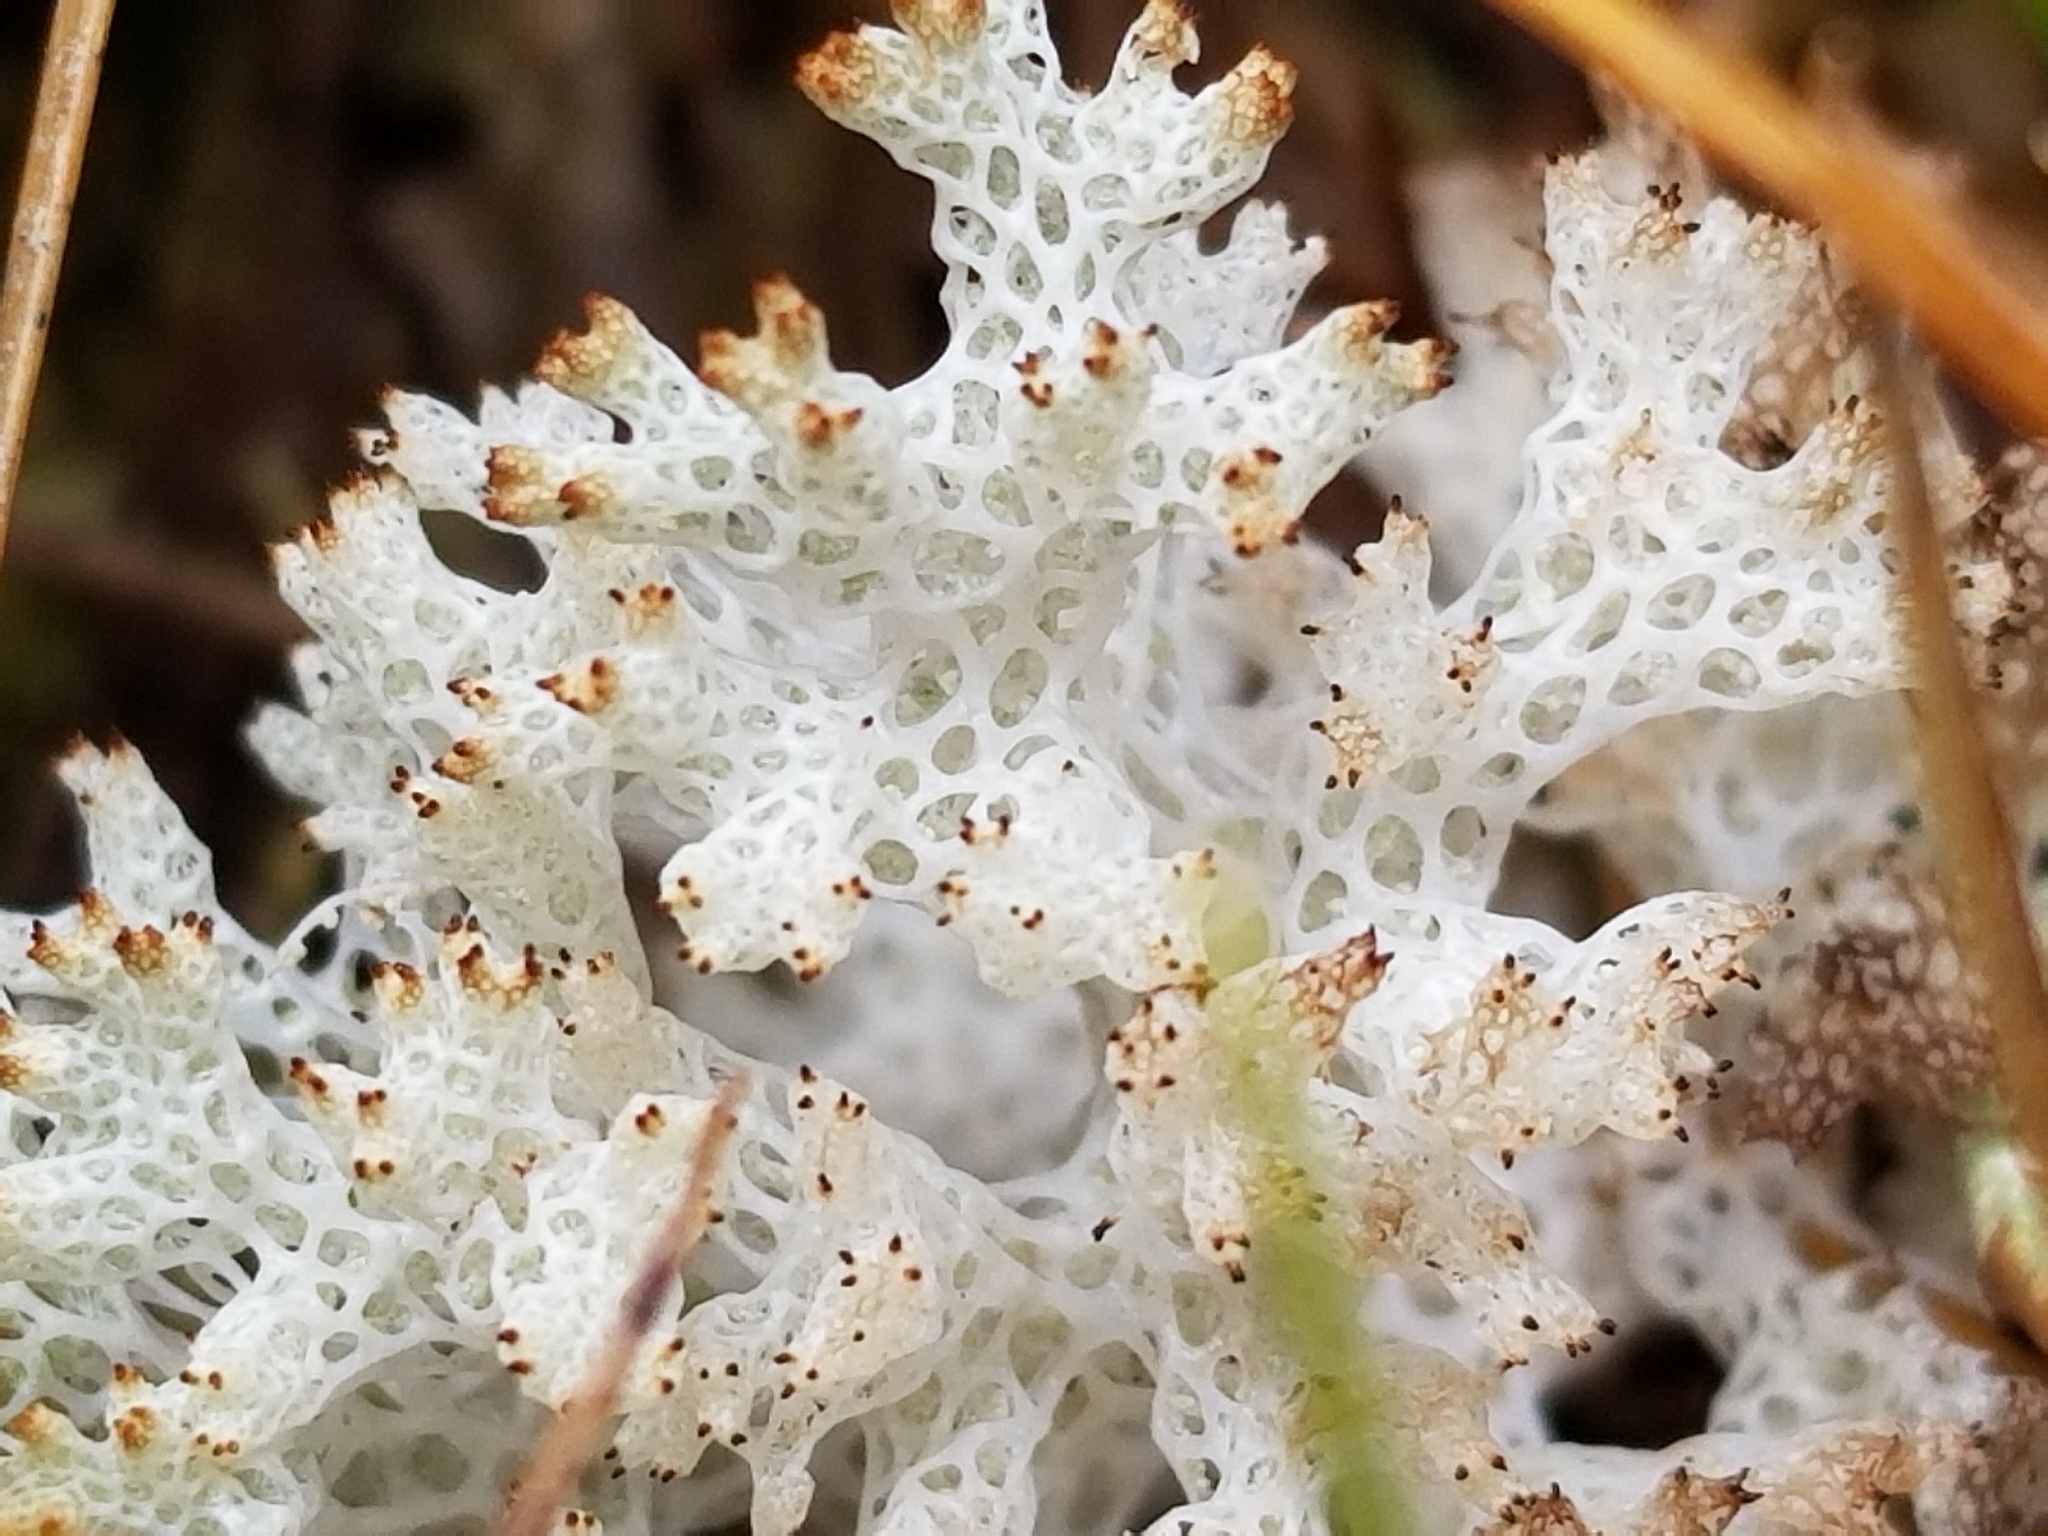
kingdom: Fungi
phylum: Ascomycota
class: Lecanoromycetes
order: Lecanorales
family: Cladoniaceae
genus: Pulchrocladia
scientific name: Pulchrocladia retipora
